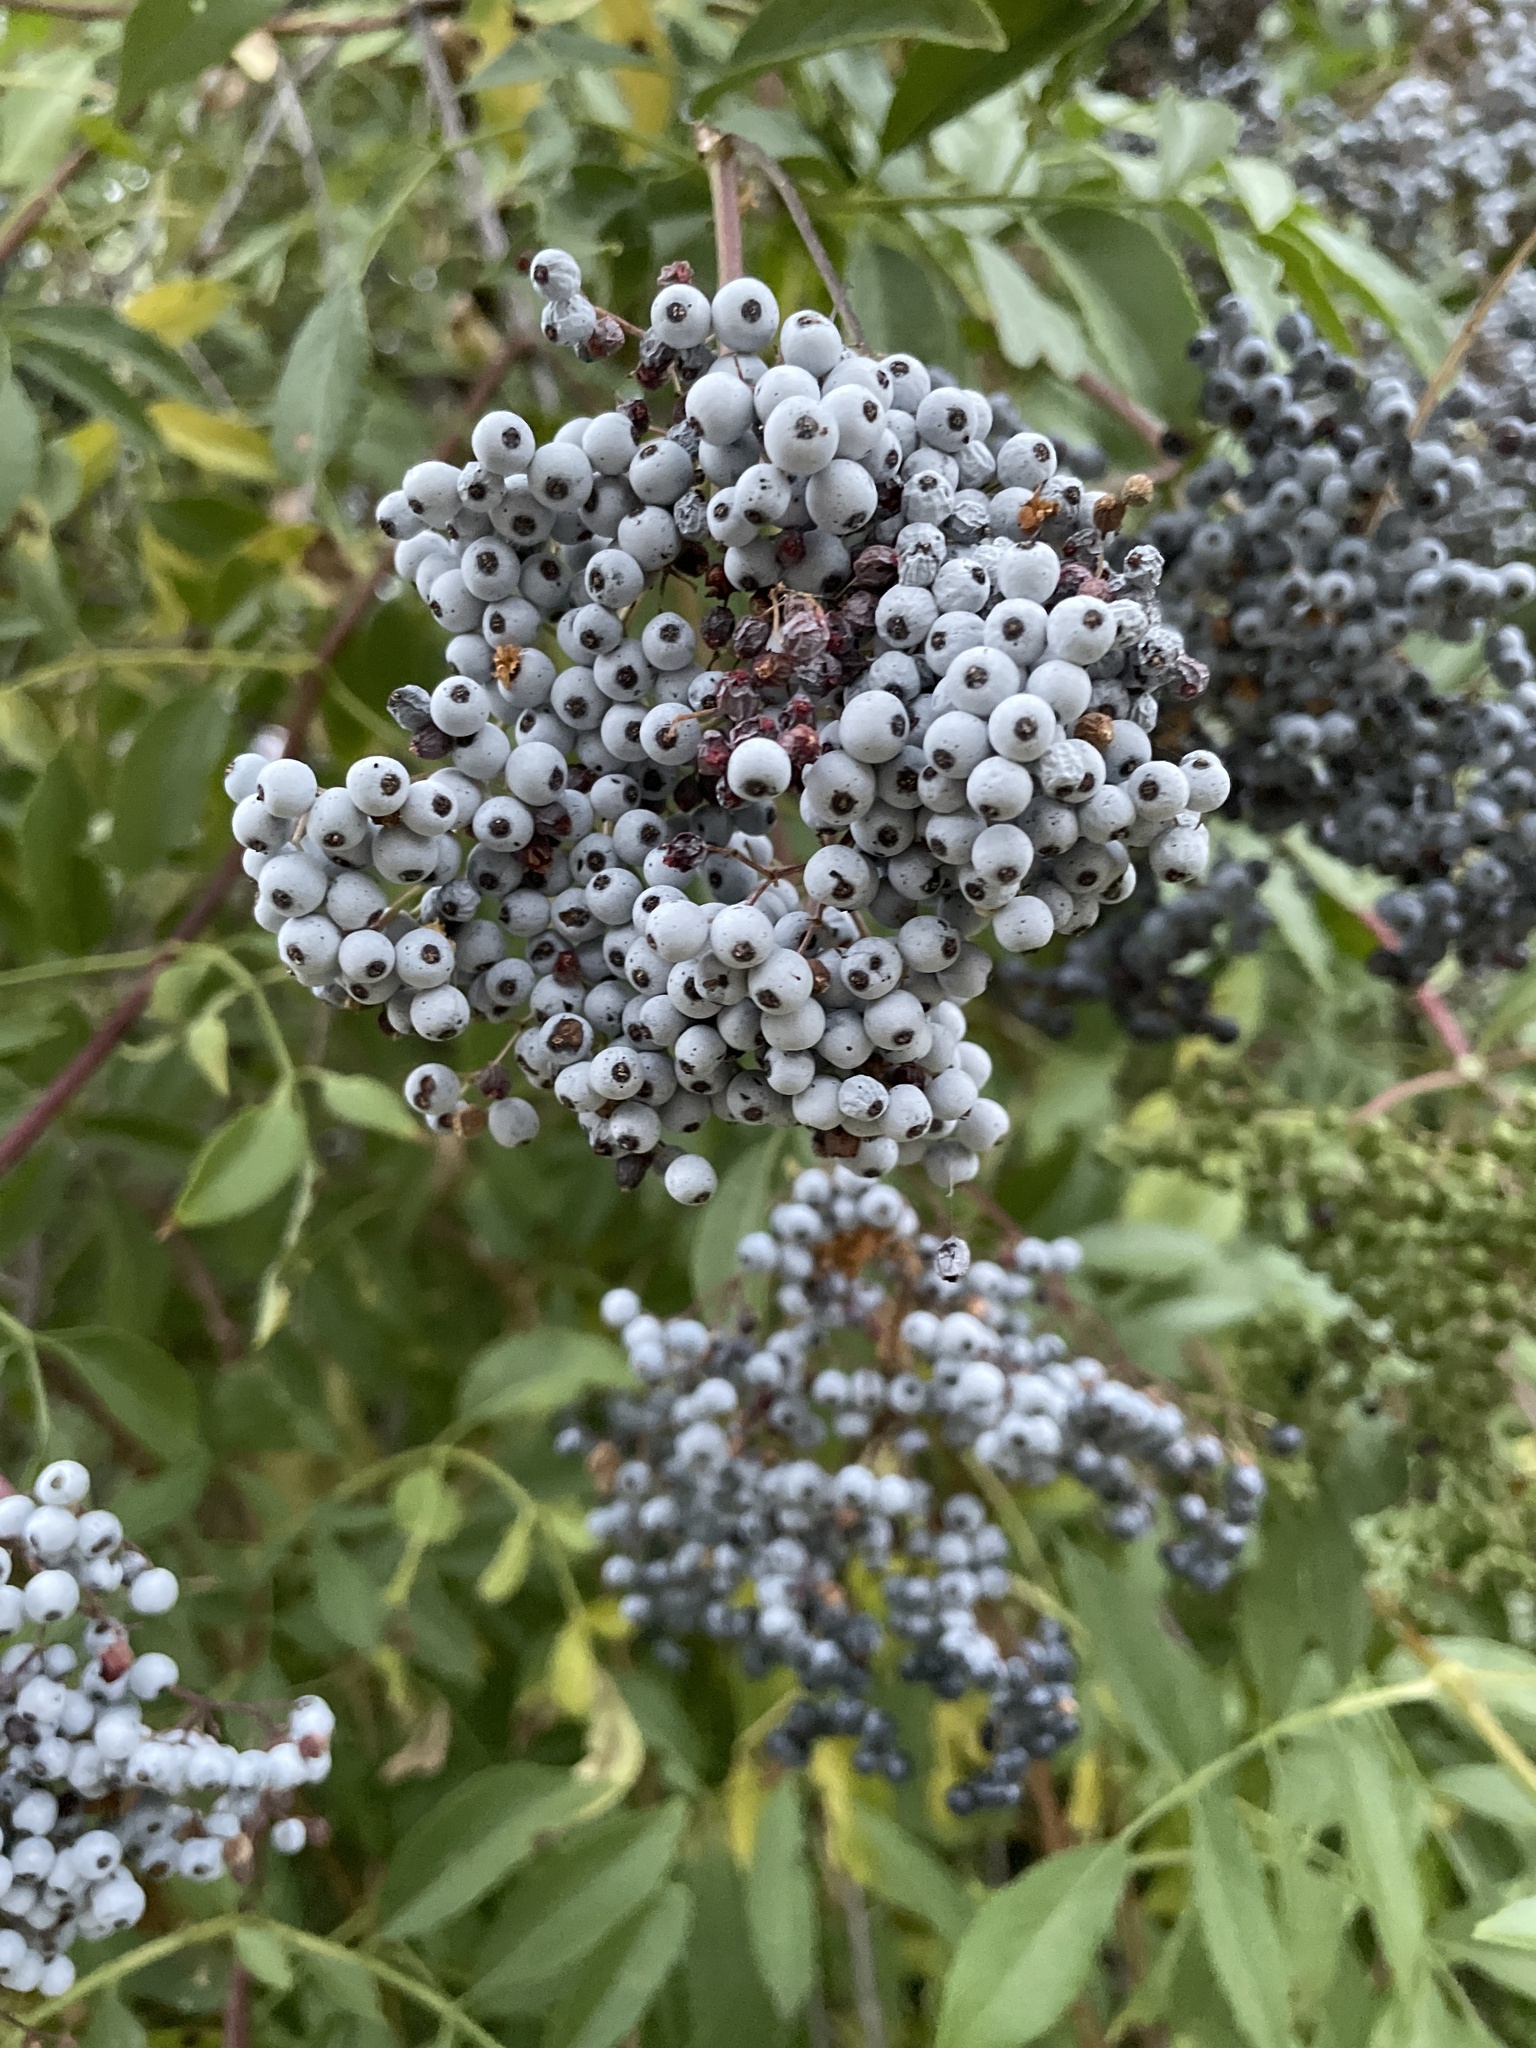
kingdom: Plantae
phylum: Tracheophyta
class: Magnoliopsida
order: Dipsacales
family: Viburnaceae
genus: Sambucus
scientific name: Sambucus cerulea
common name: Blue elder
